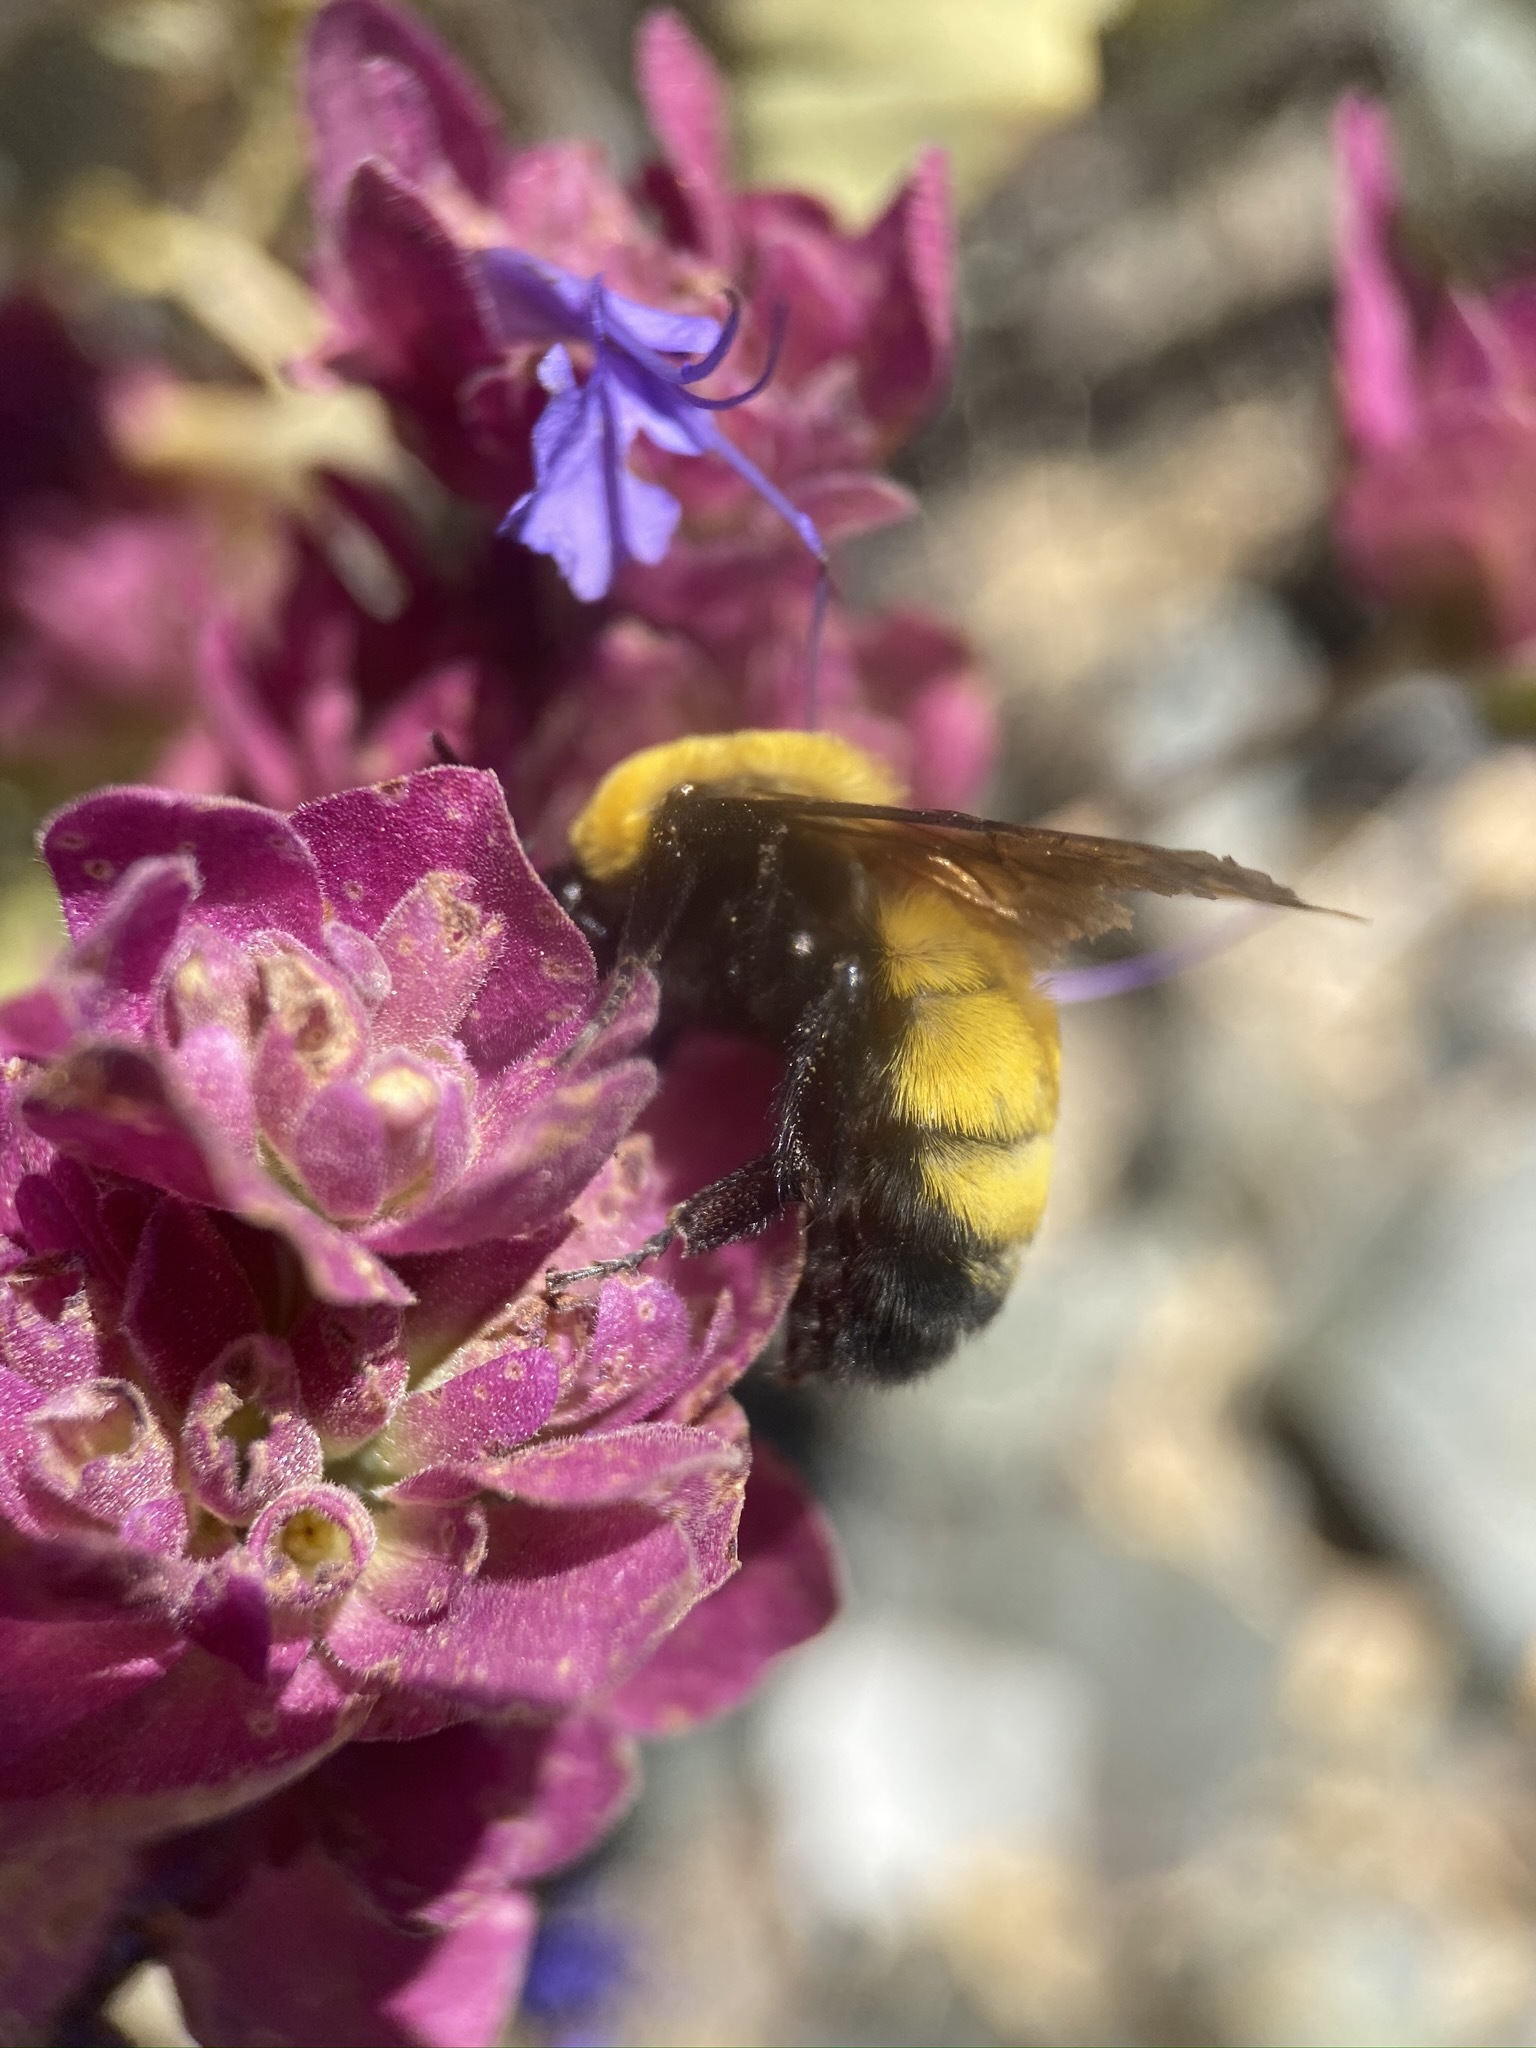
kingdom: Animalia
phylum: Arthropoda
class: Insecta
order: Hymenoptera
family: Apidae
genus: Bombus
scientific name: Bombus morrisoni
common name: Morrison bumble bee
